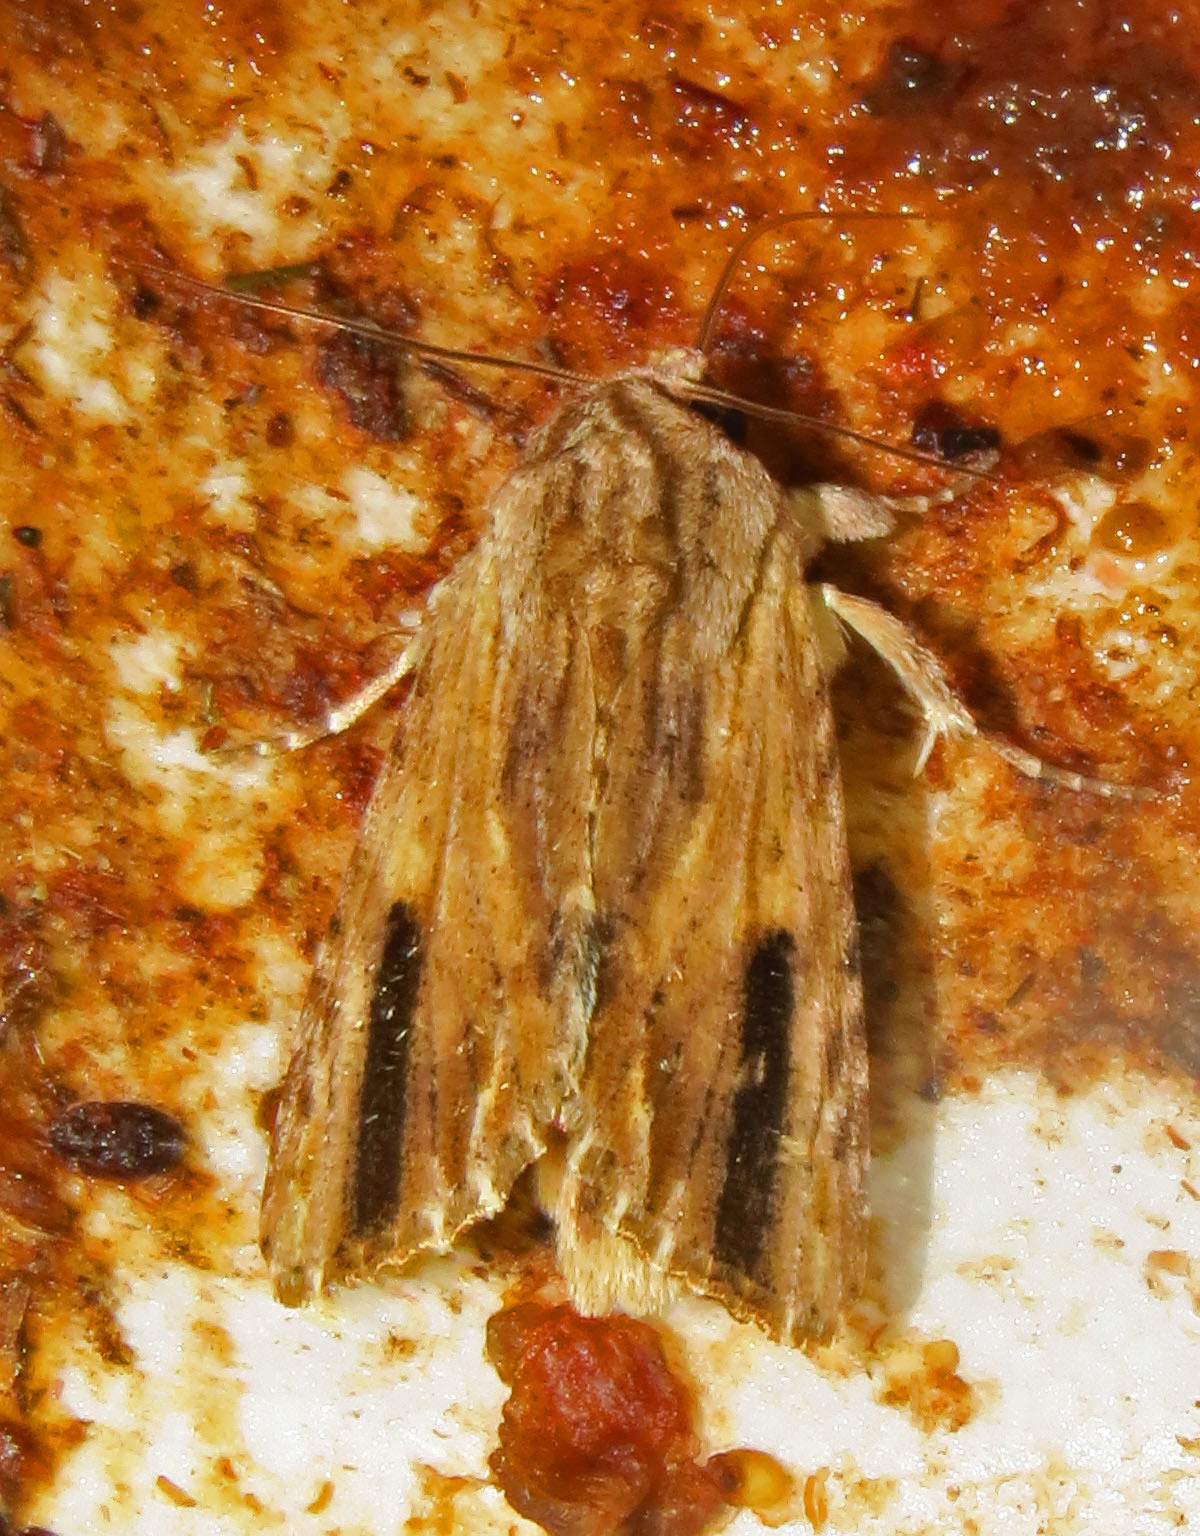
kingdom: Animalia
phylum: Arthropoda
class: Insecta
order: Lepidoptera
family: Noctuidae
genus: Spodoptera
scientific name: Spodoptera eridania
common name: Southern army worm
